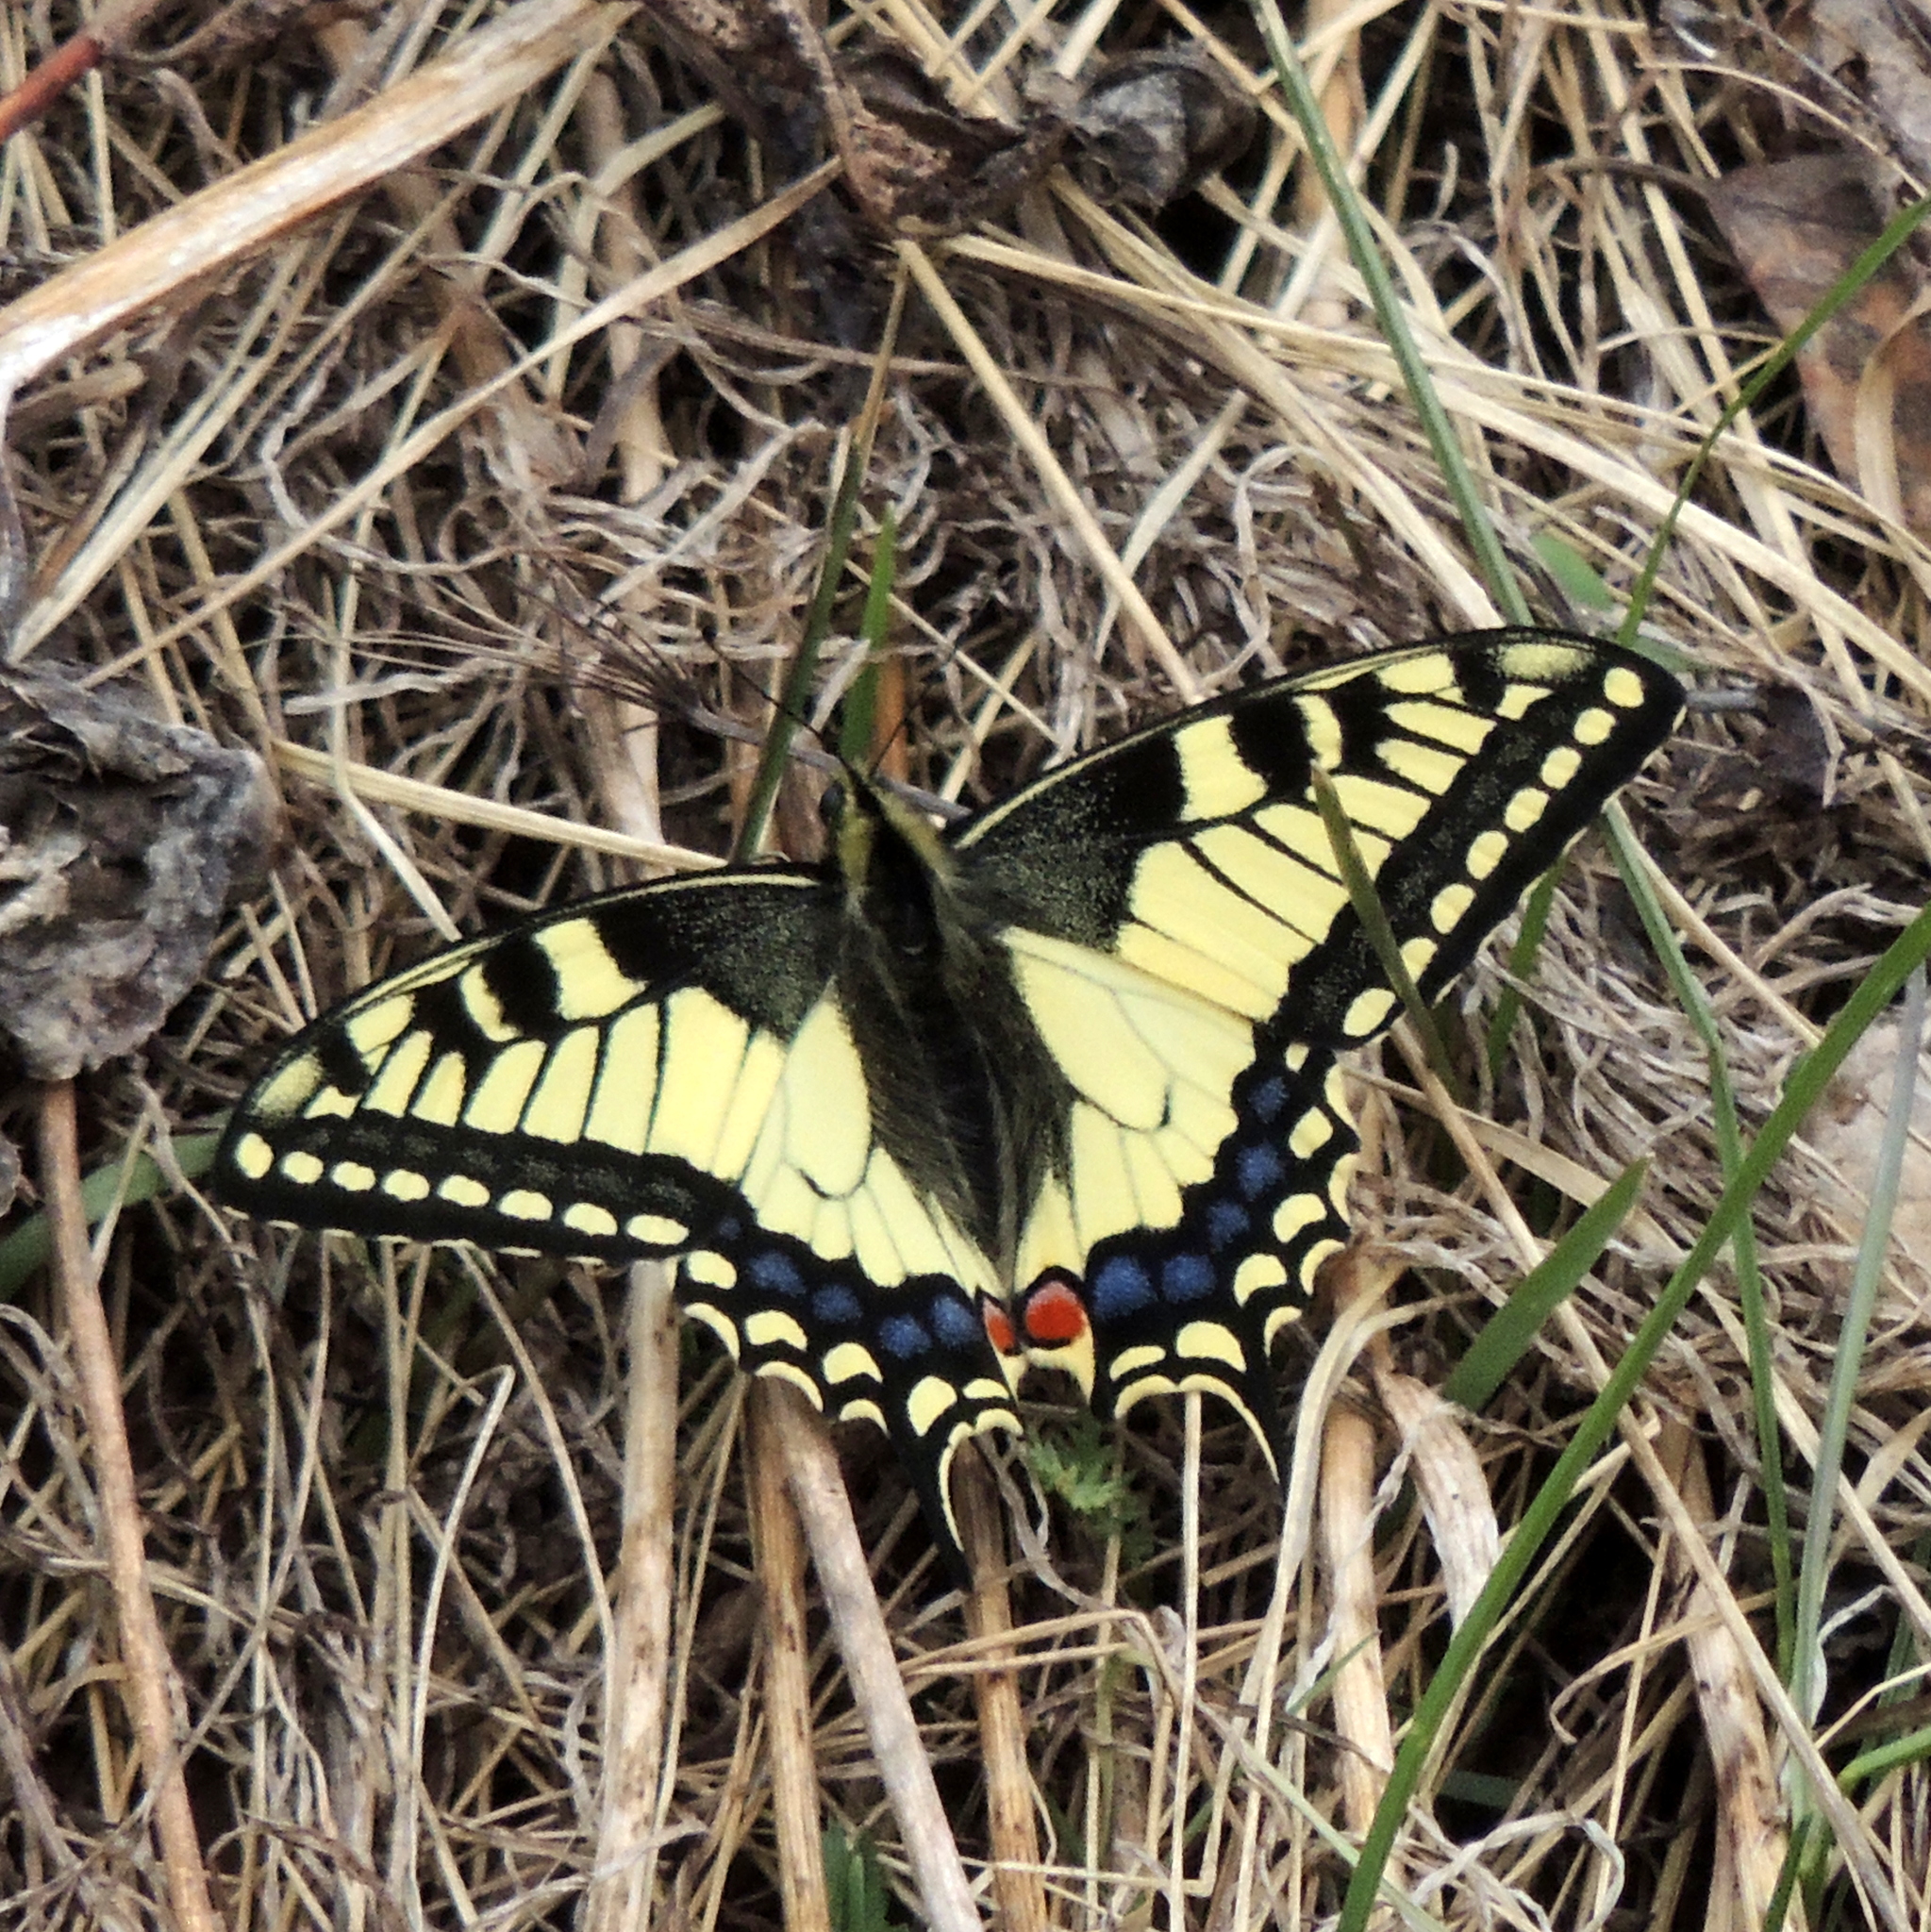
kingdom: Animalia
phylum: Arthropoda
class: Insecta
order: Lepidoptera
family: Papilionidae
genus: Papilio
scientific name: Papilio machaon
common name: Swallowtail
